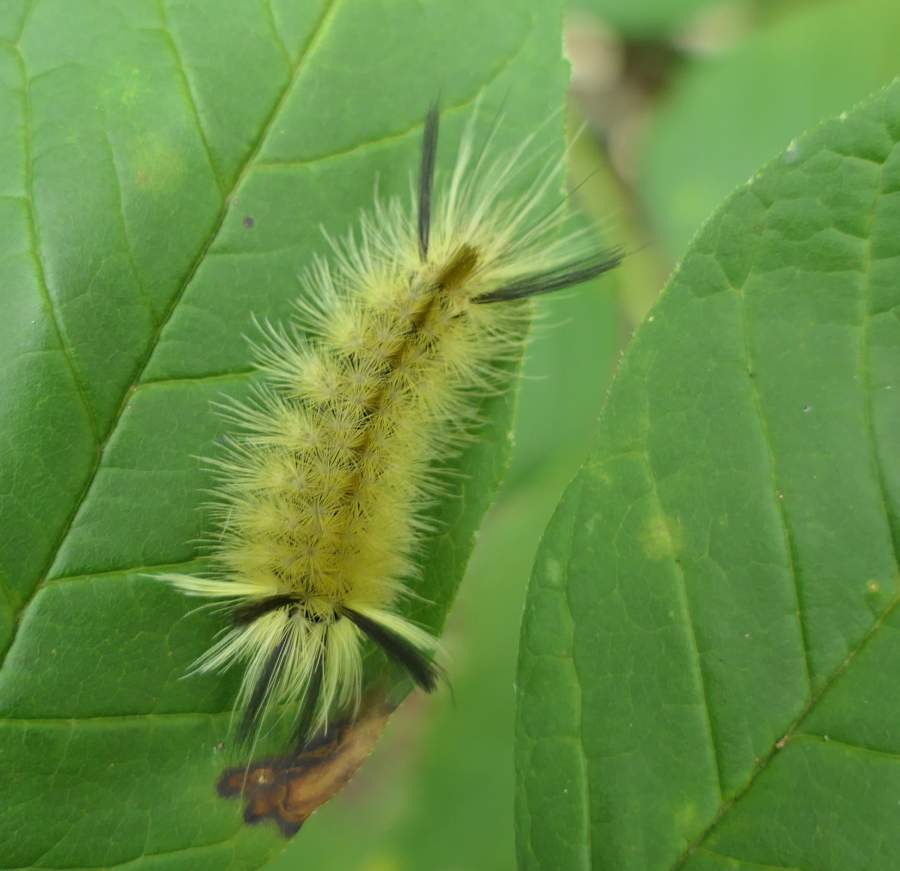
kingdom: Animalia
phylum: Arthropoda
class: Insecta
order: Lepidoptera
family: Erebidae
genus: Halysidota
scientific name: Halysidota tessellaris
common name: Banded tussock moth
